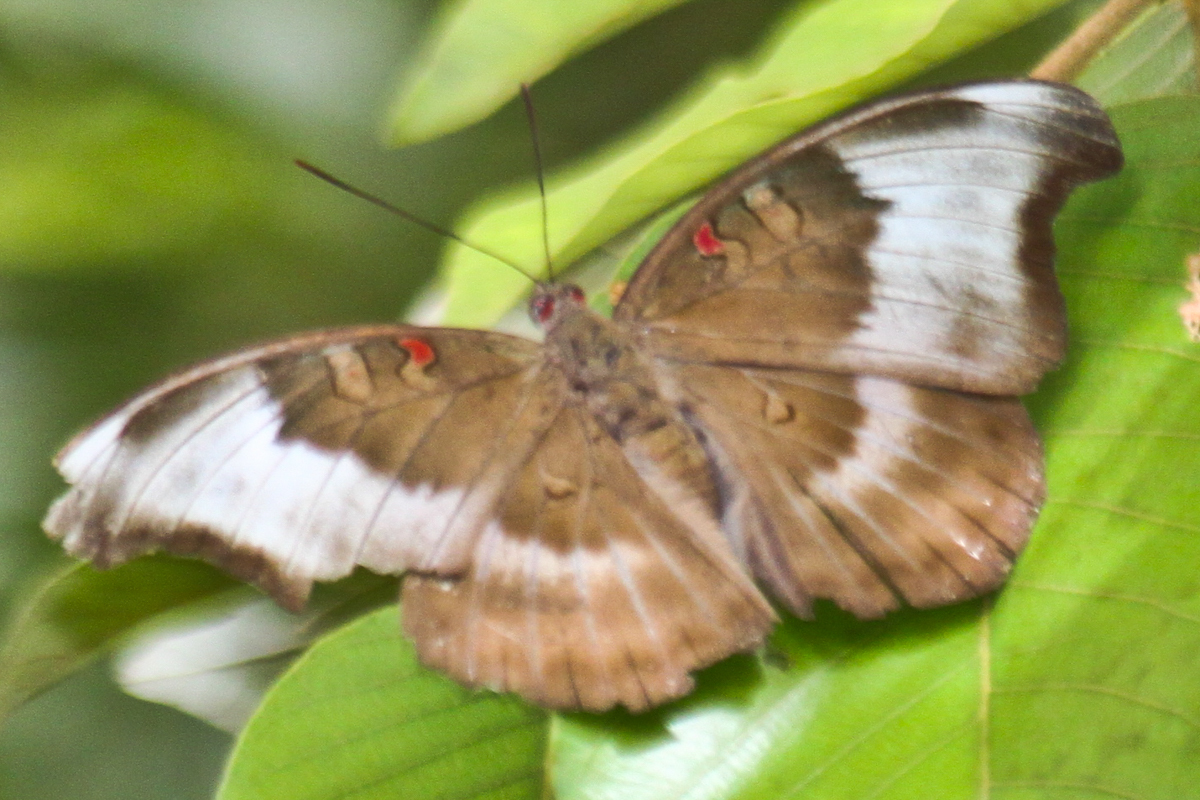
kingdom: Animalia
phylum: Arthropoda
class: Insecta
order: Lepidoptera
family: Nymphalidae
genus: Euthalia
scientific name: Euthalia Dophla evelina
